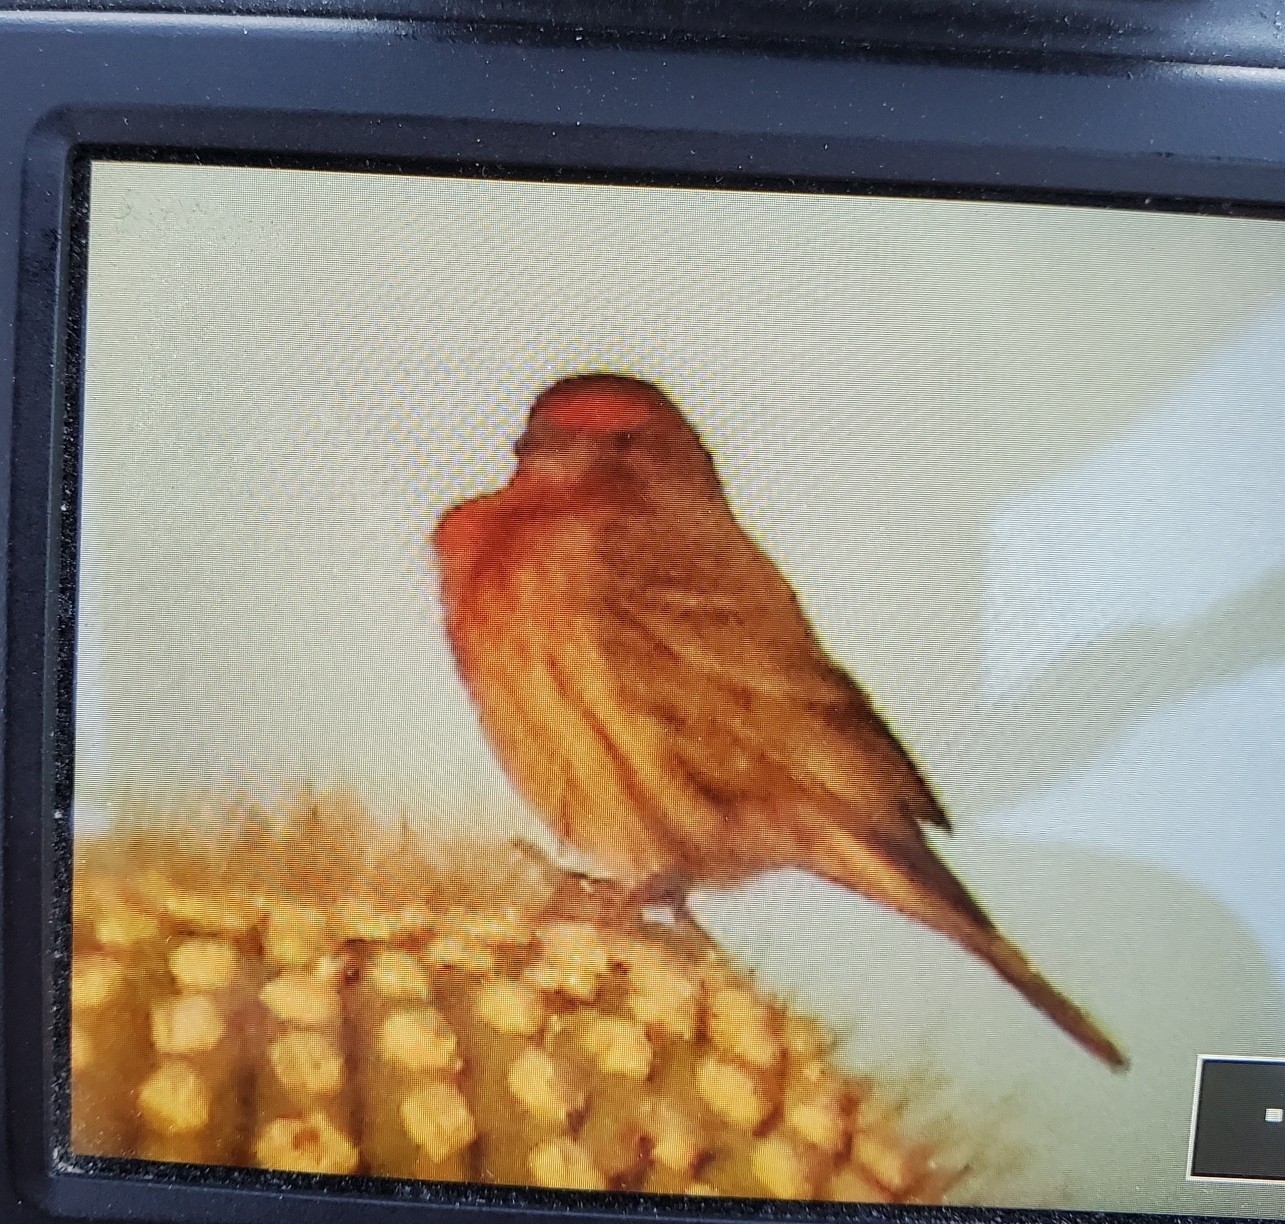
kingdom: Animalia
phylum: Chordata
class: Aves
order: Passeriformes
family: Fringillidae
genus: Haemorhous
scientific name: Haemorhous mexicanus
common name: House finch
